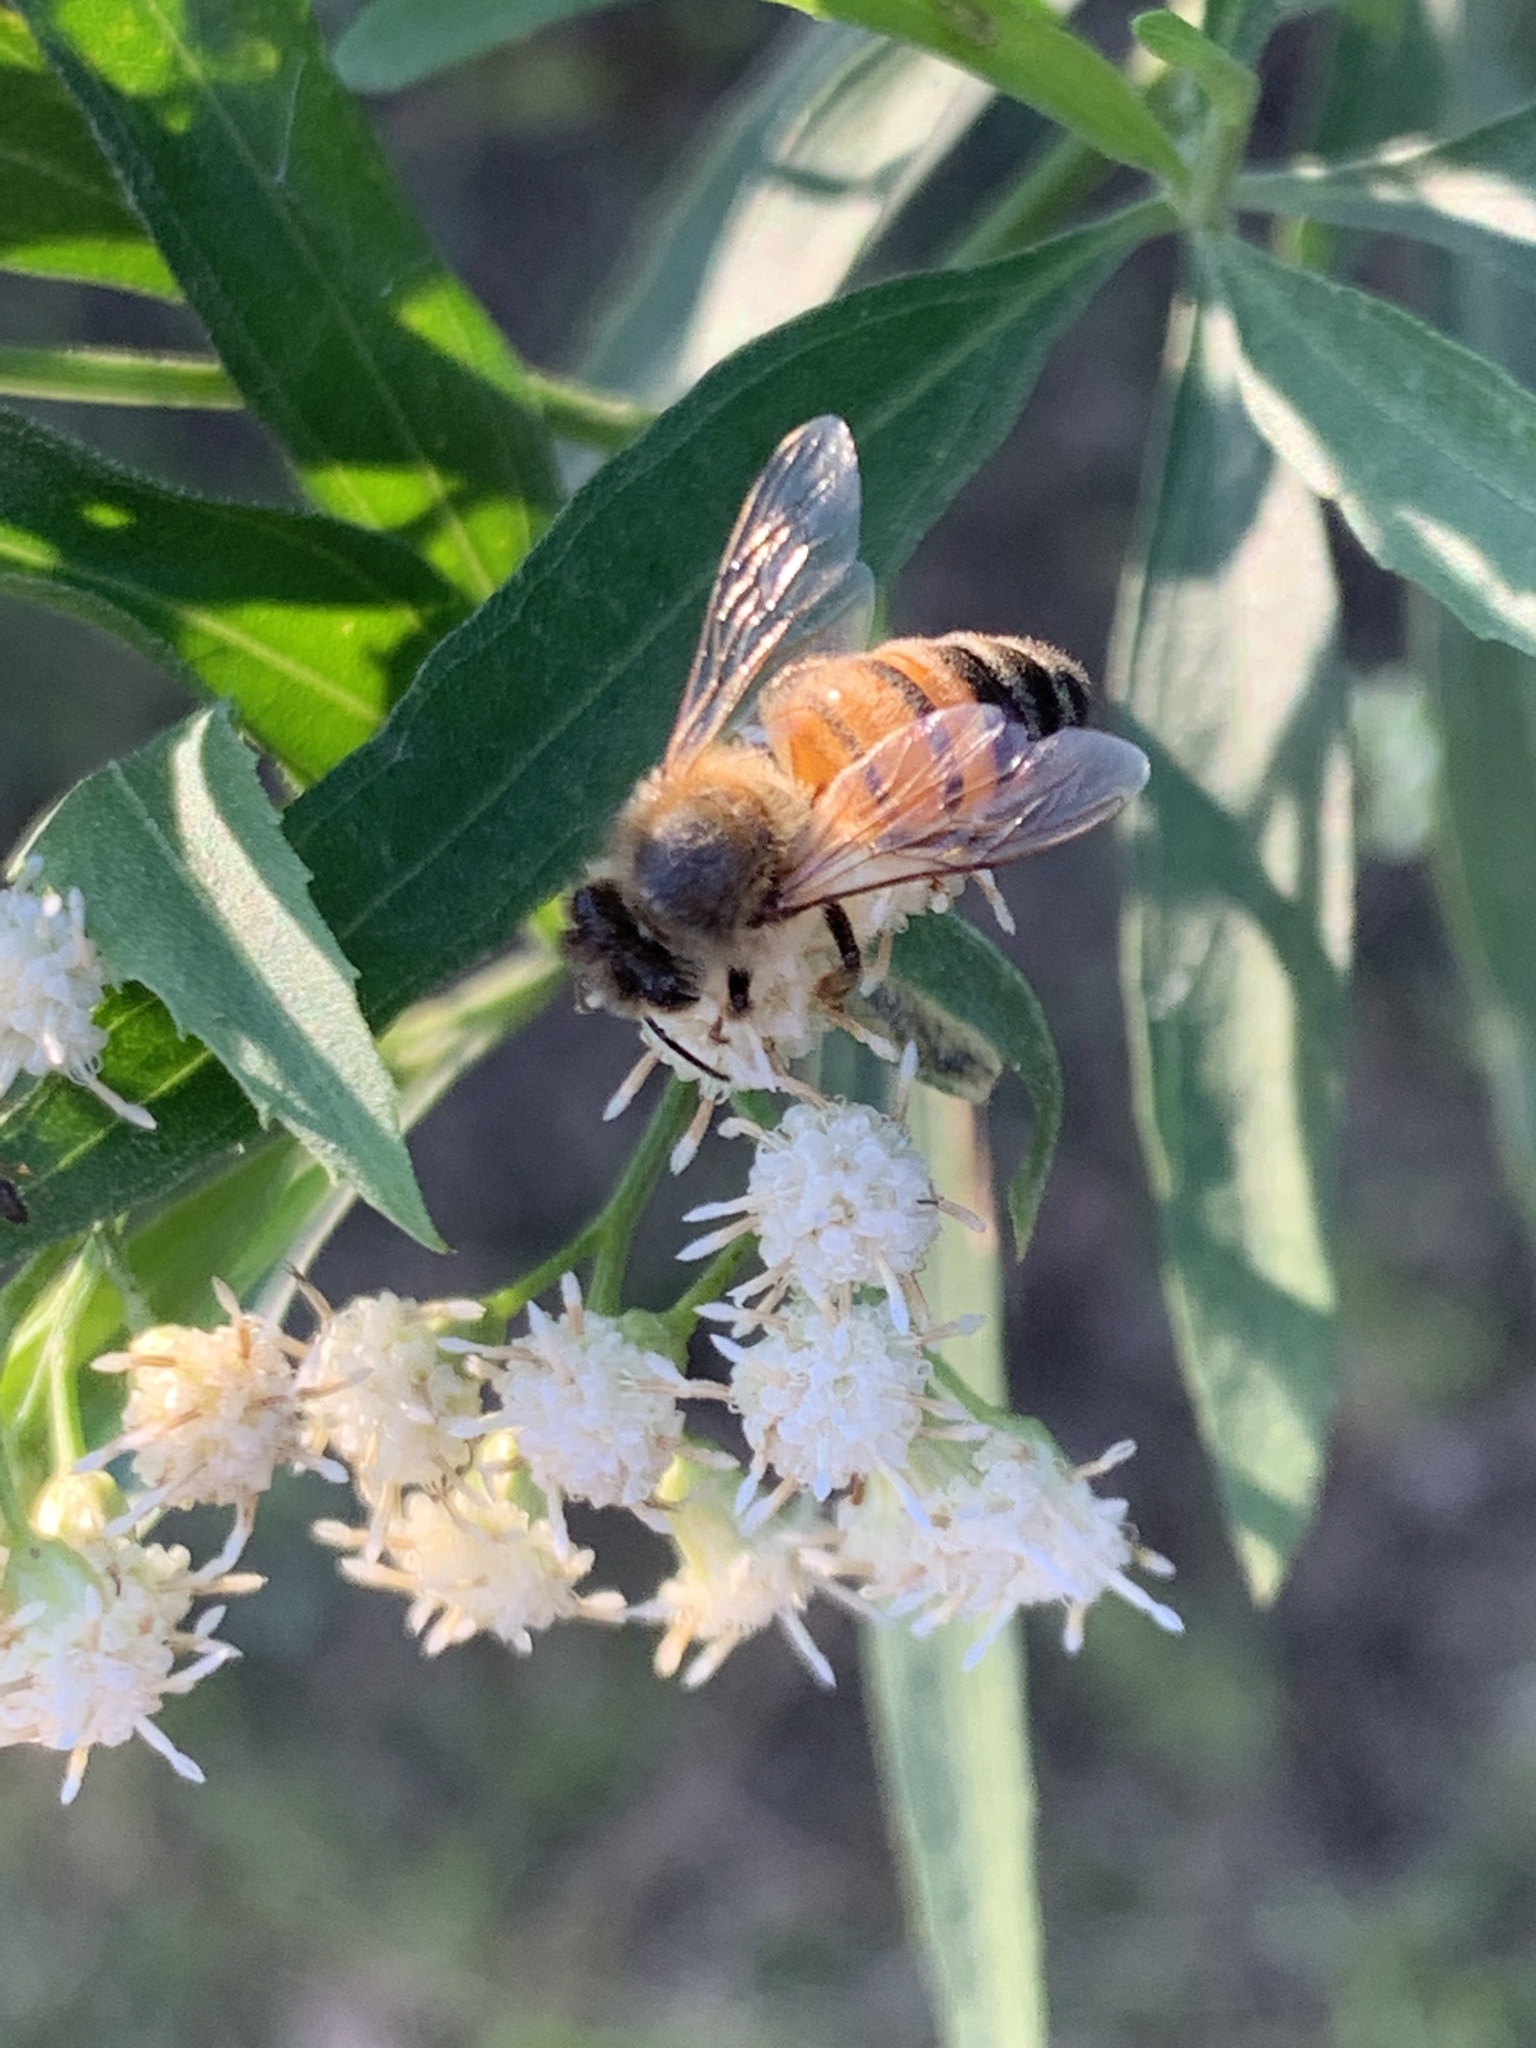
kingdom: Animalia
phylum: Arthropoda
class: Insecta
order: Hymenoptera
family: Apidae
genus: Apis
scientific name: Apis mellifera
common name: Honey bee
